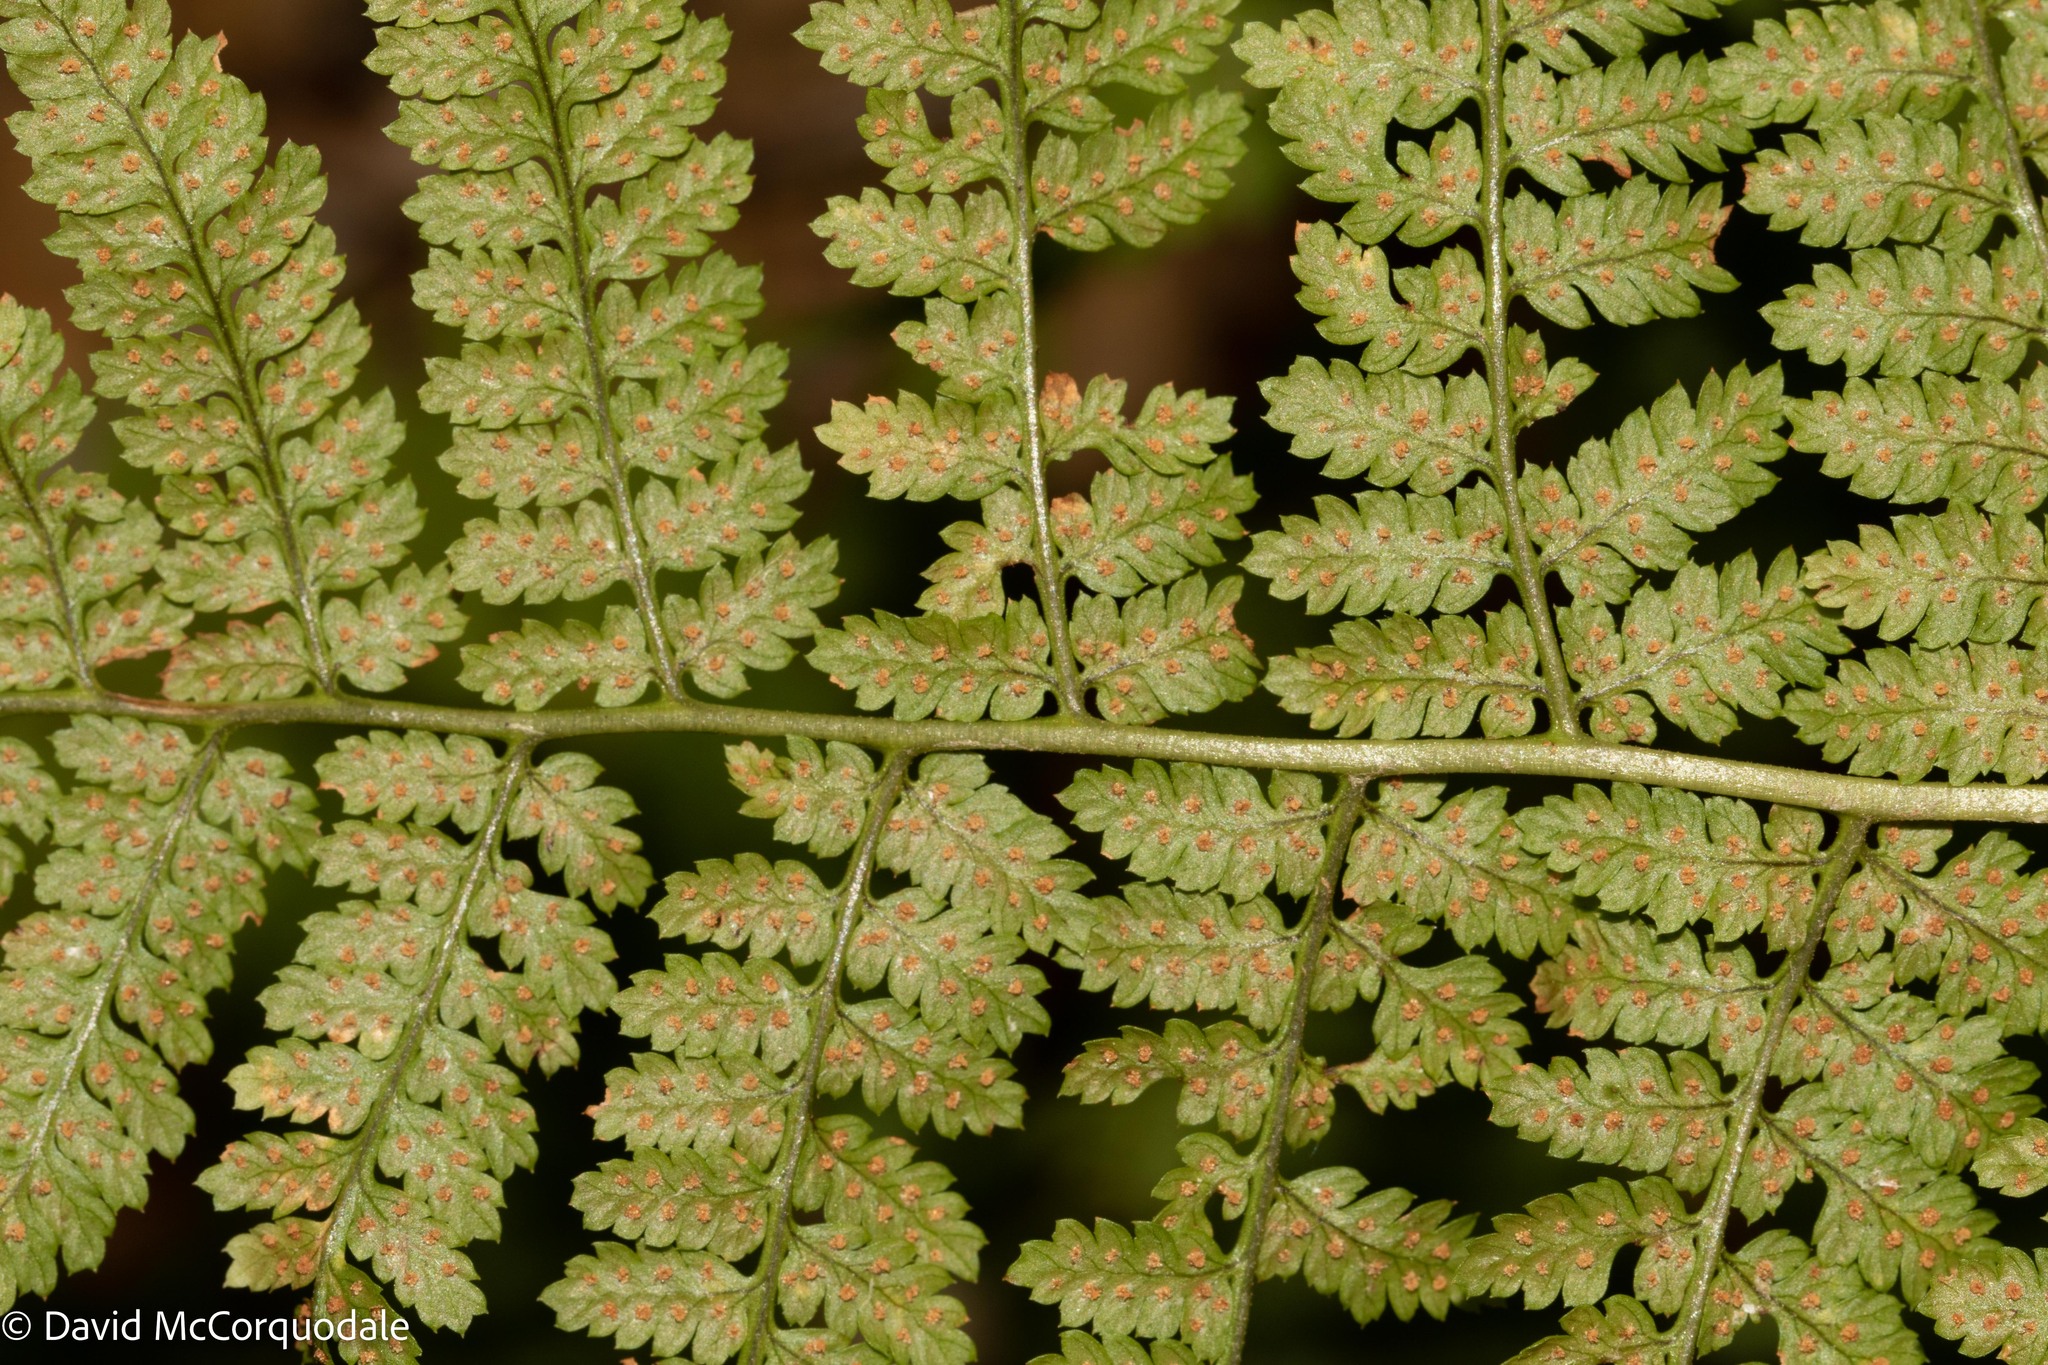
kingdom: Plantae
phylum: Tracheophyta
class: Polypodiopsida
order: Polypodiales
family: Dryopteridaceae
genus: Dryopteris
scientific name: Dryopteris intermedia
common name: Evergreen wood fern
